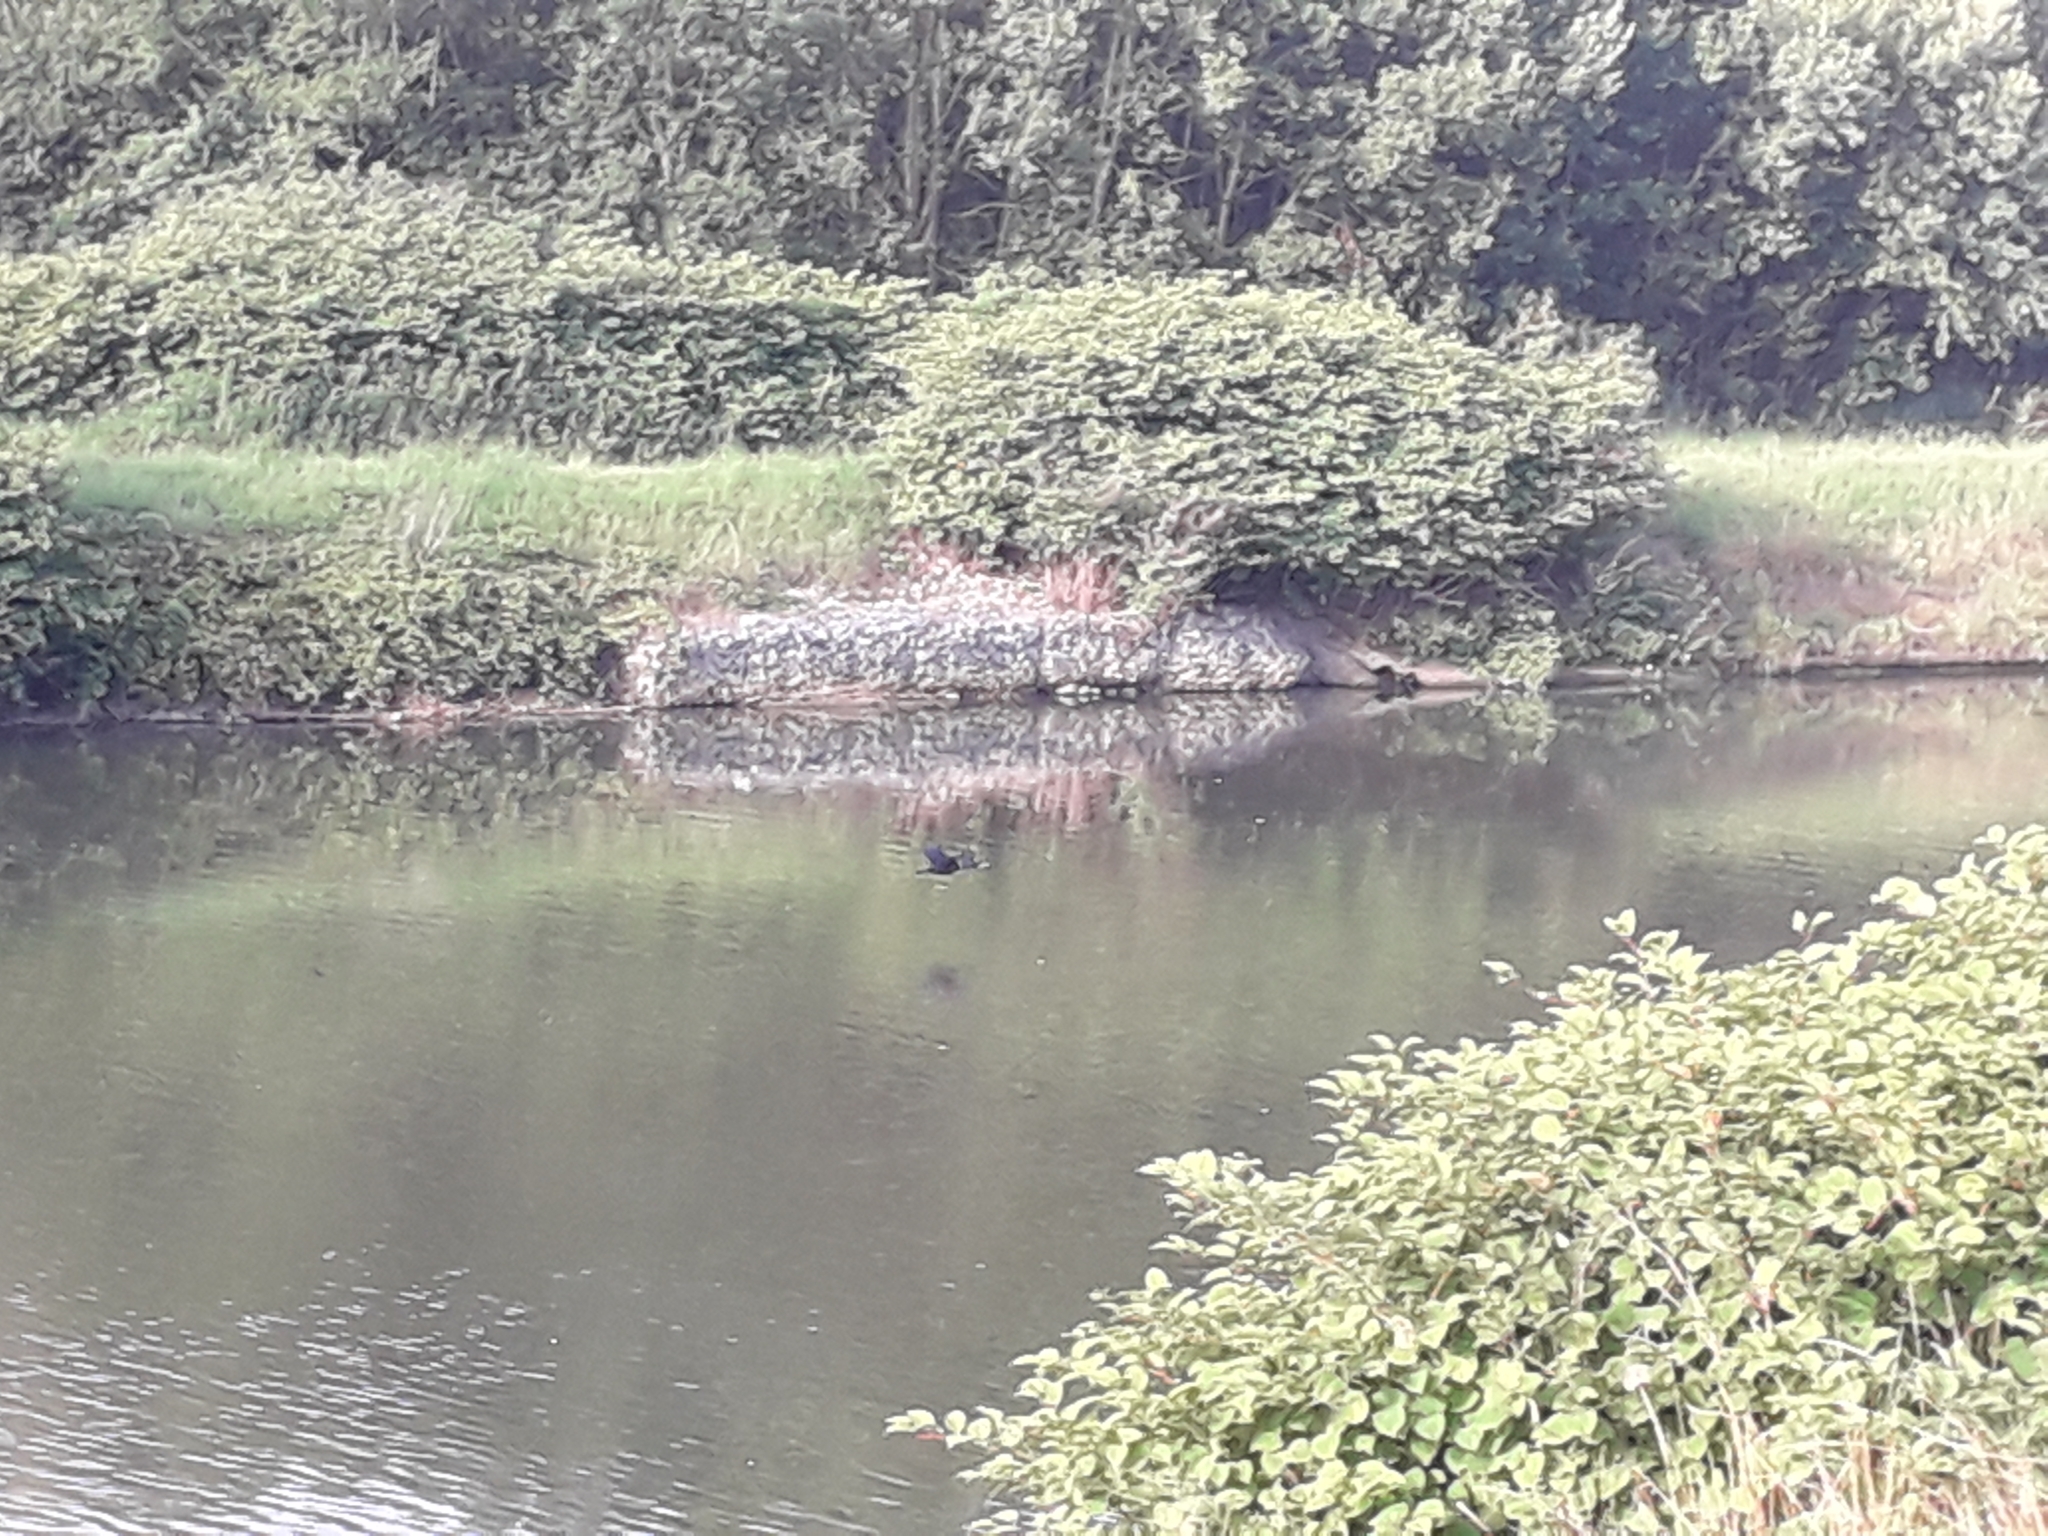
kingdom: Animalia
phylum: Chordata
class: Aves
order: Suliformes
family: Phalacrocoracidae
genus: Phalacrocorax
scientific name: Phalacrocorax carbo
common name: Great cormorant
